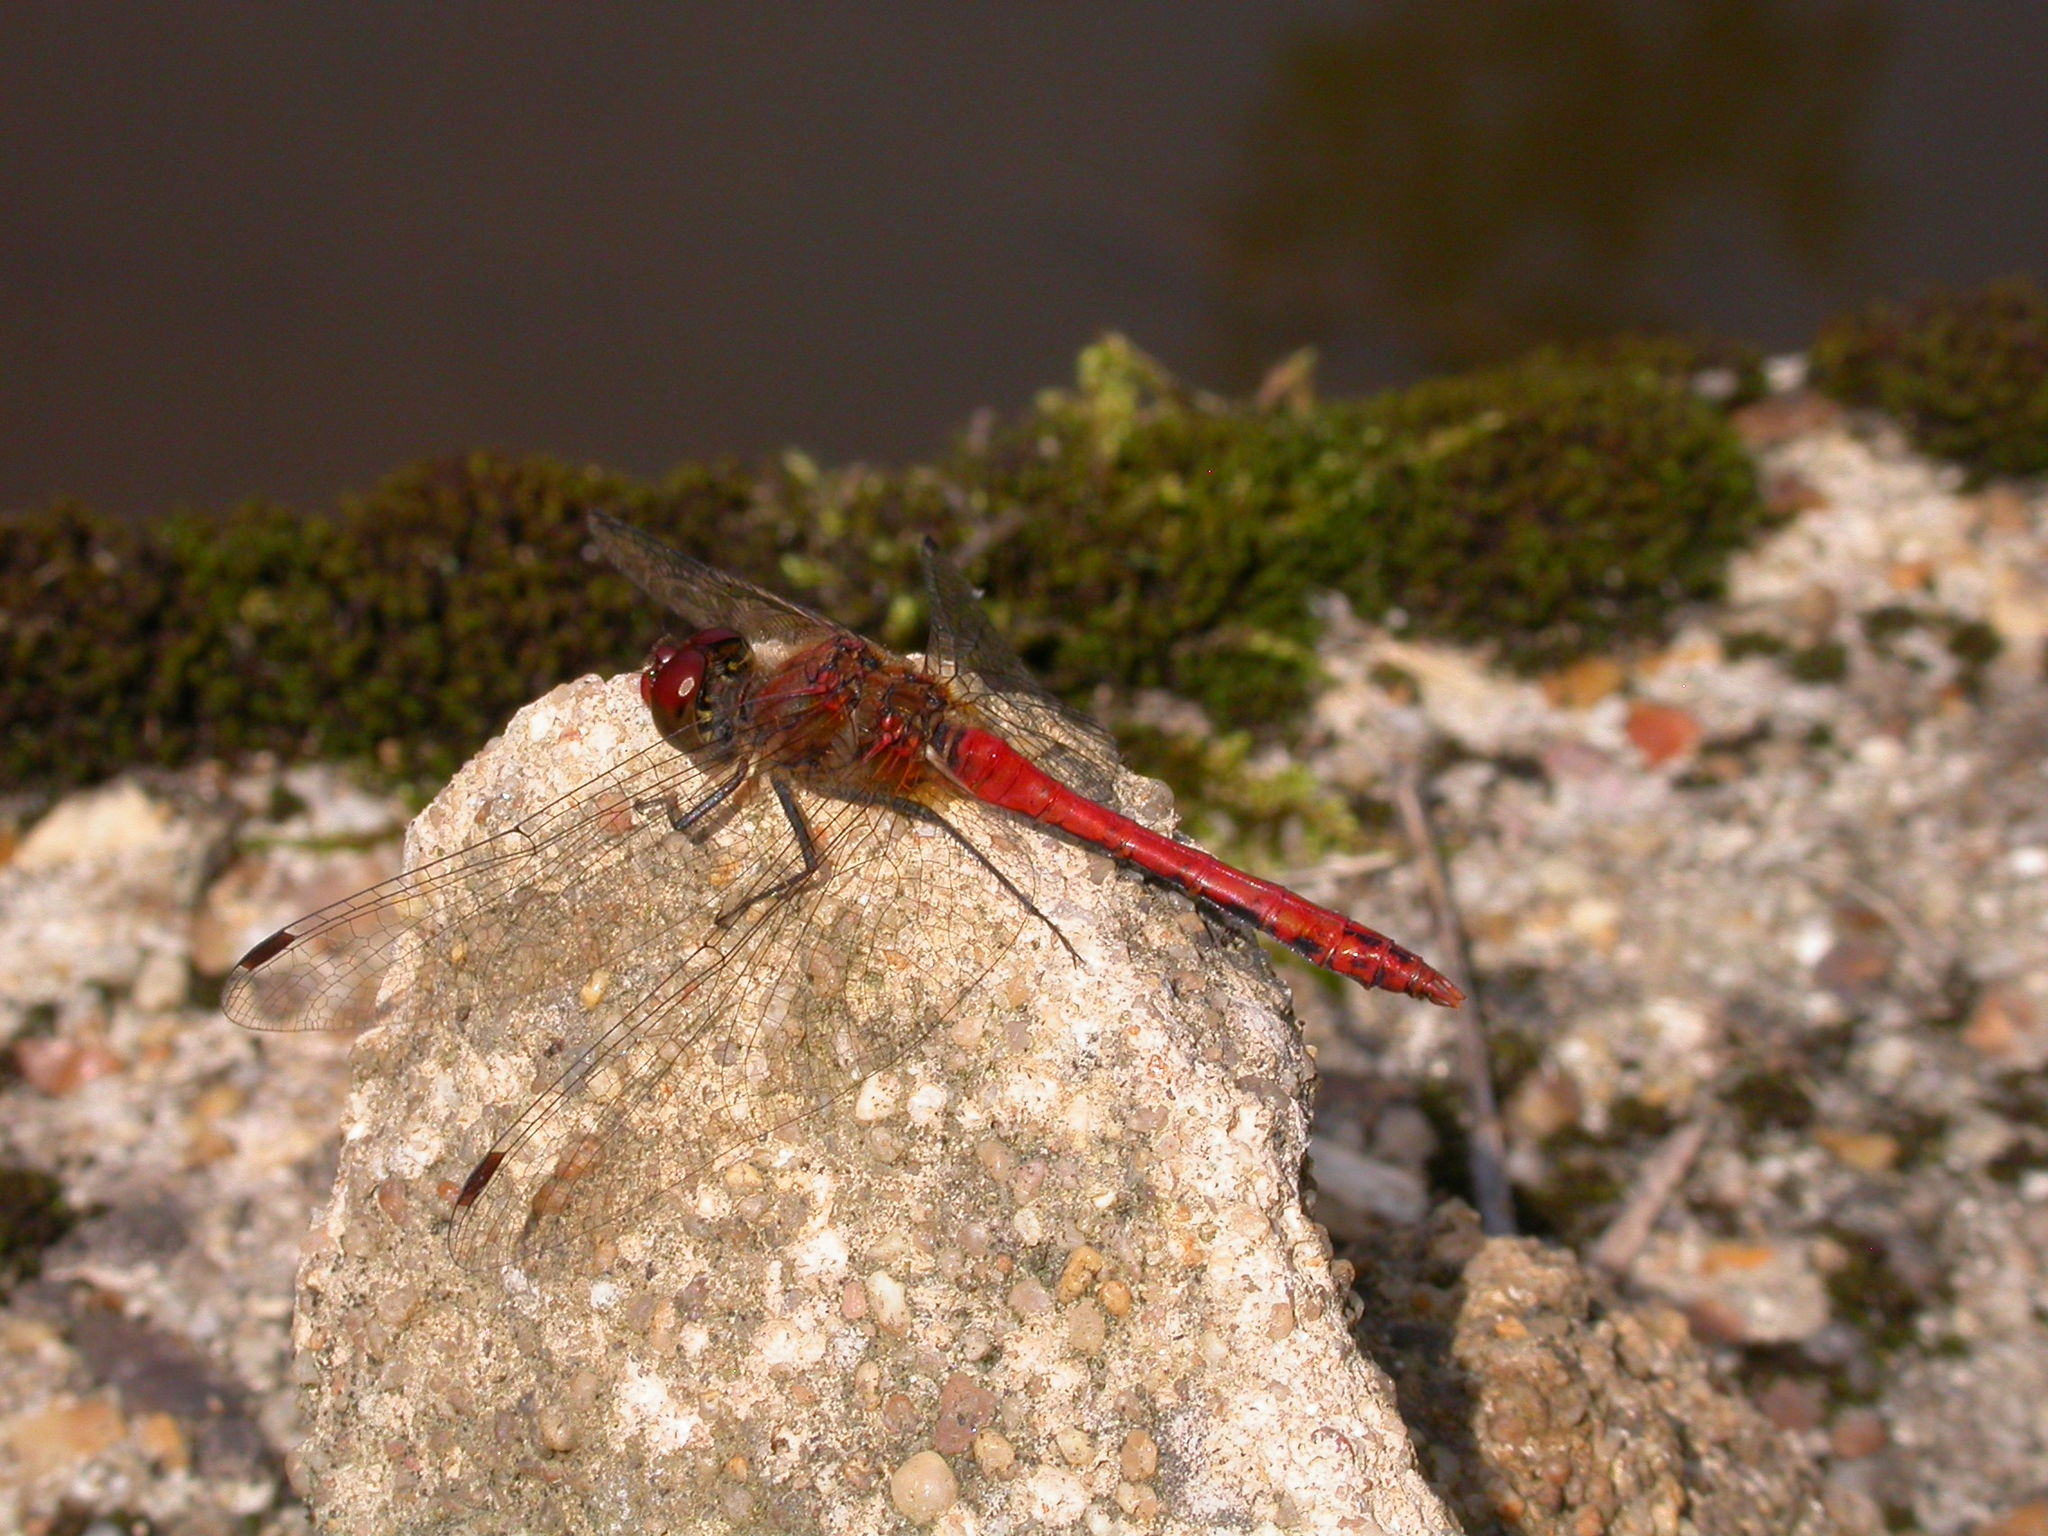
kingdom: Animalia
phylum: Arthropoda
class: Insecta
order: Odonata
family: Libellulidae
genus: Sympetrum
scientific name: Sympetrum sanguineum
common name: Ruddy darter
